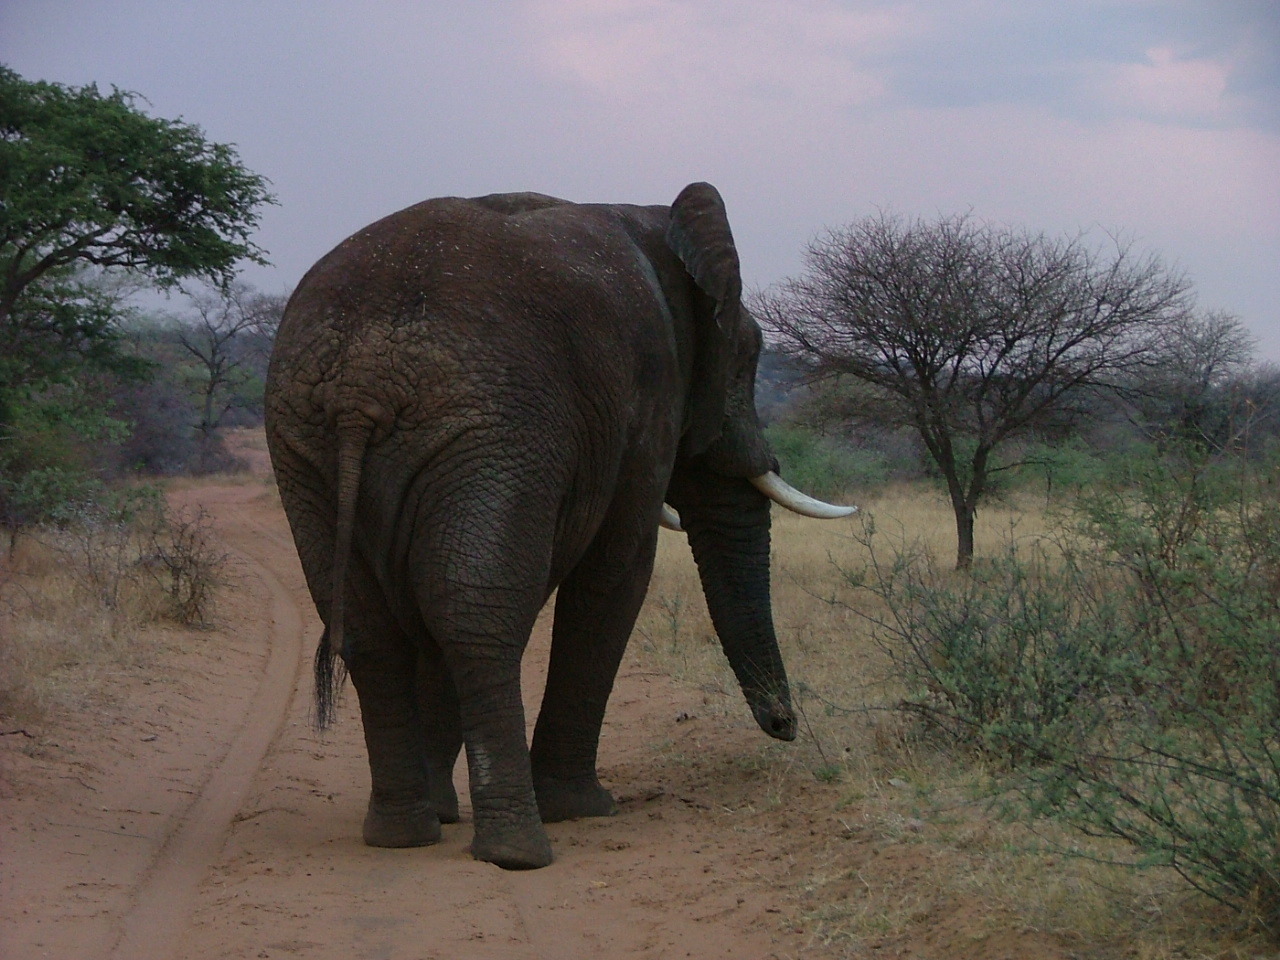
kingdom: Animalia
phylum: Chordata
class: Mammalia
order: Proboscidea
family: Elephantidae
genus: Loxodonta
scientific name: Loxodonta africana
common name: African elephant
